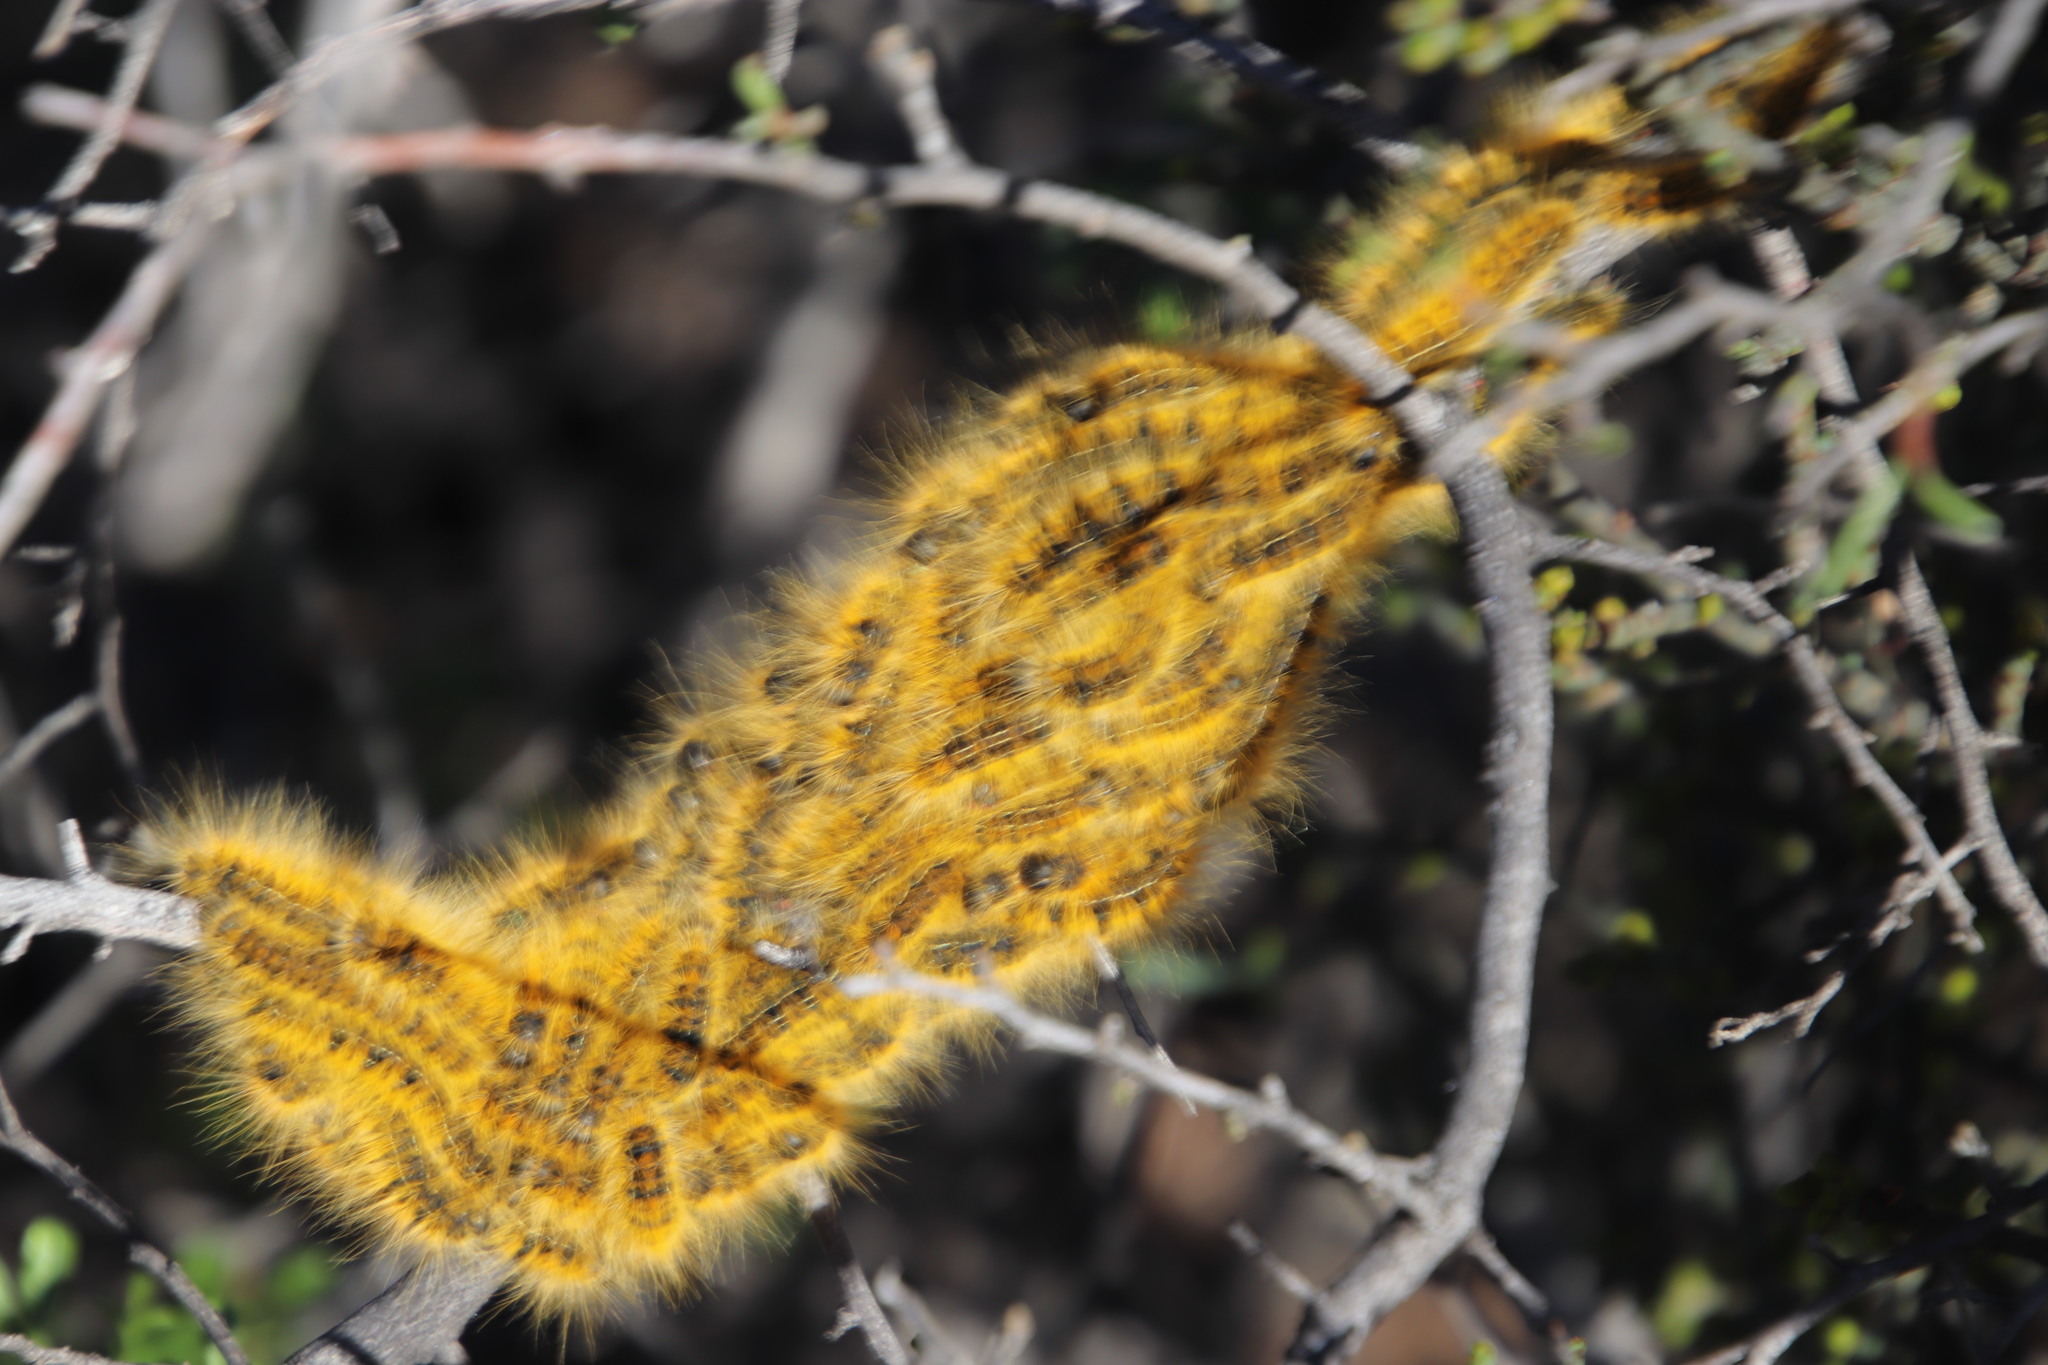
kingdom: Animalia
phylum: Arthropoda
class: Insecta
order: Lepidoptera
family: Lasiocampidae
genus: Bombycomorpha
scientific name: Bombycomorpha dukei
